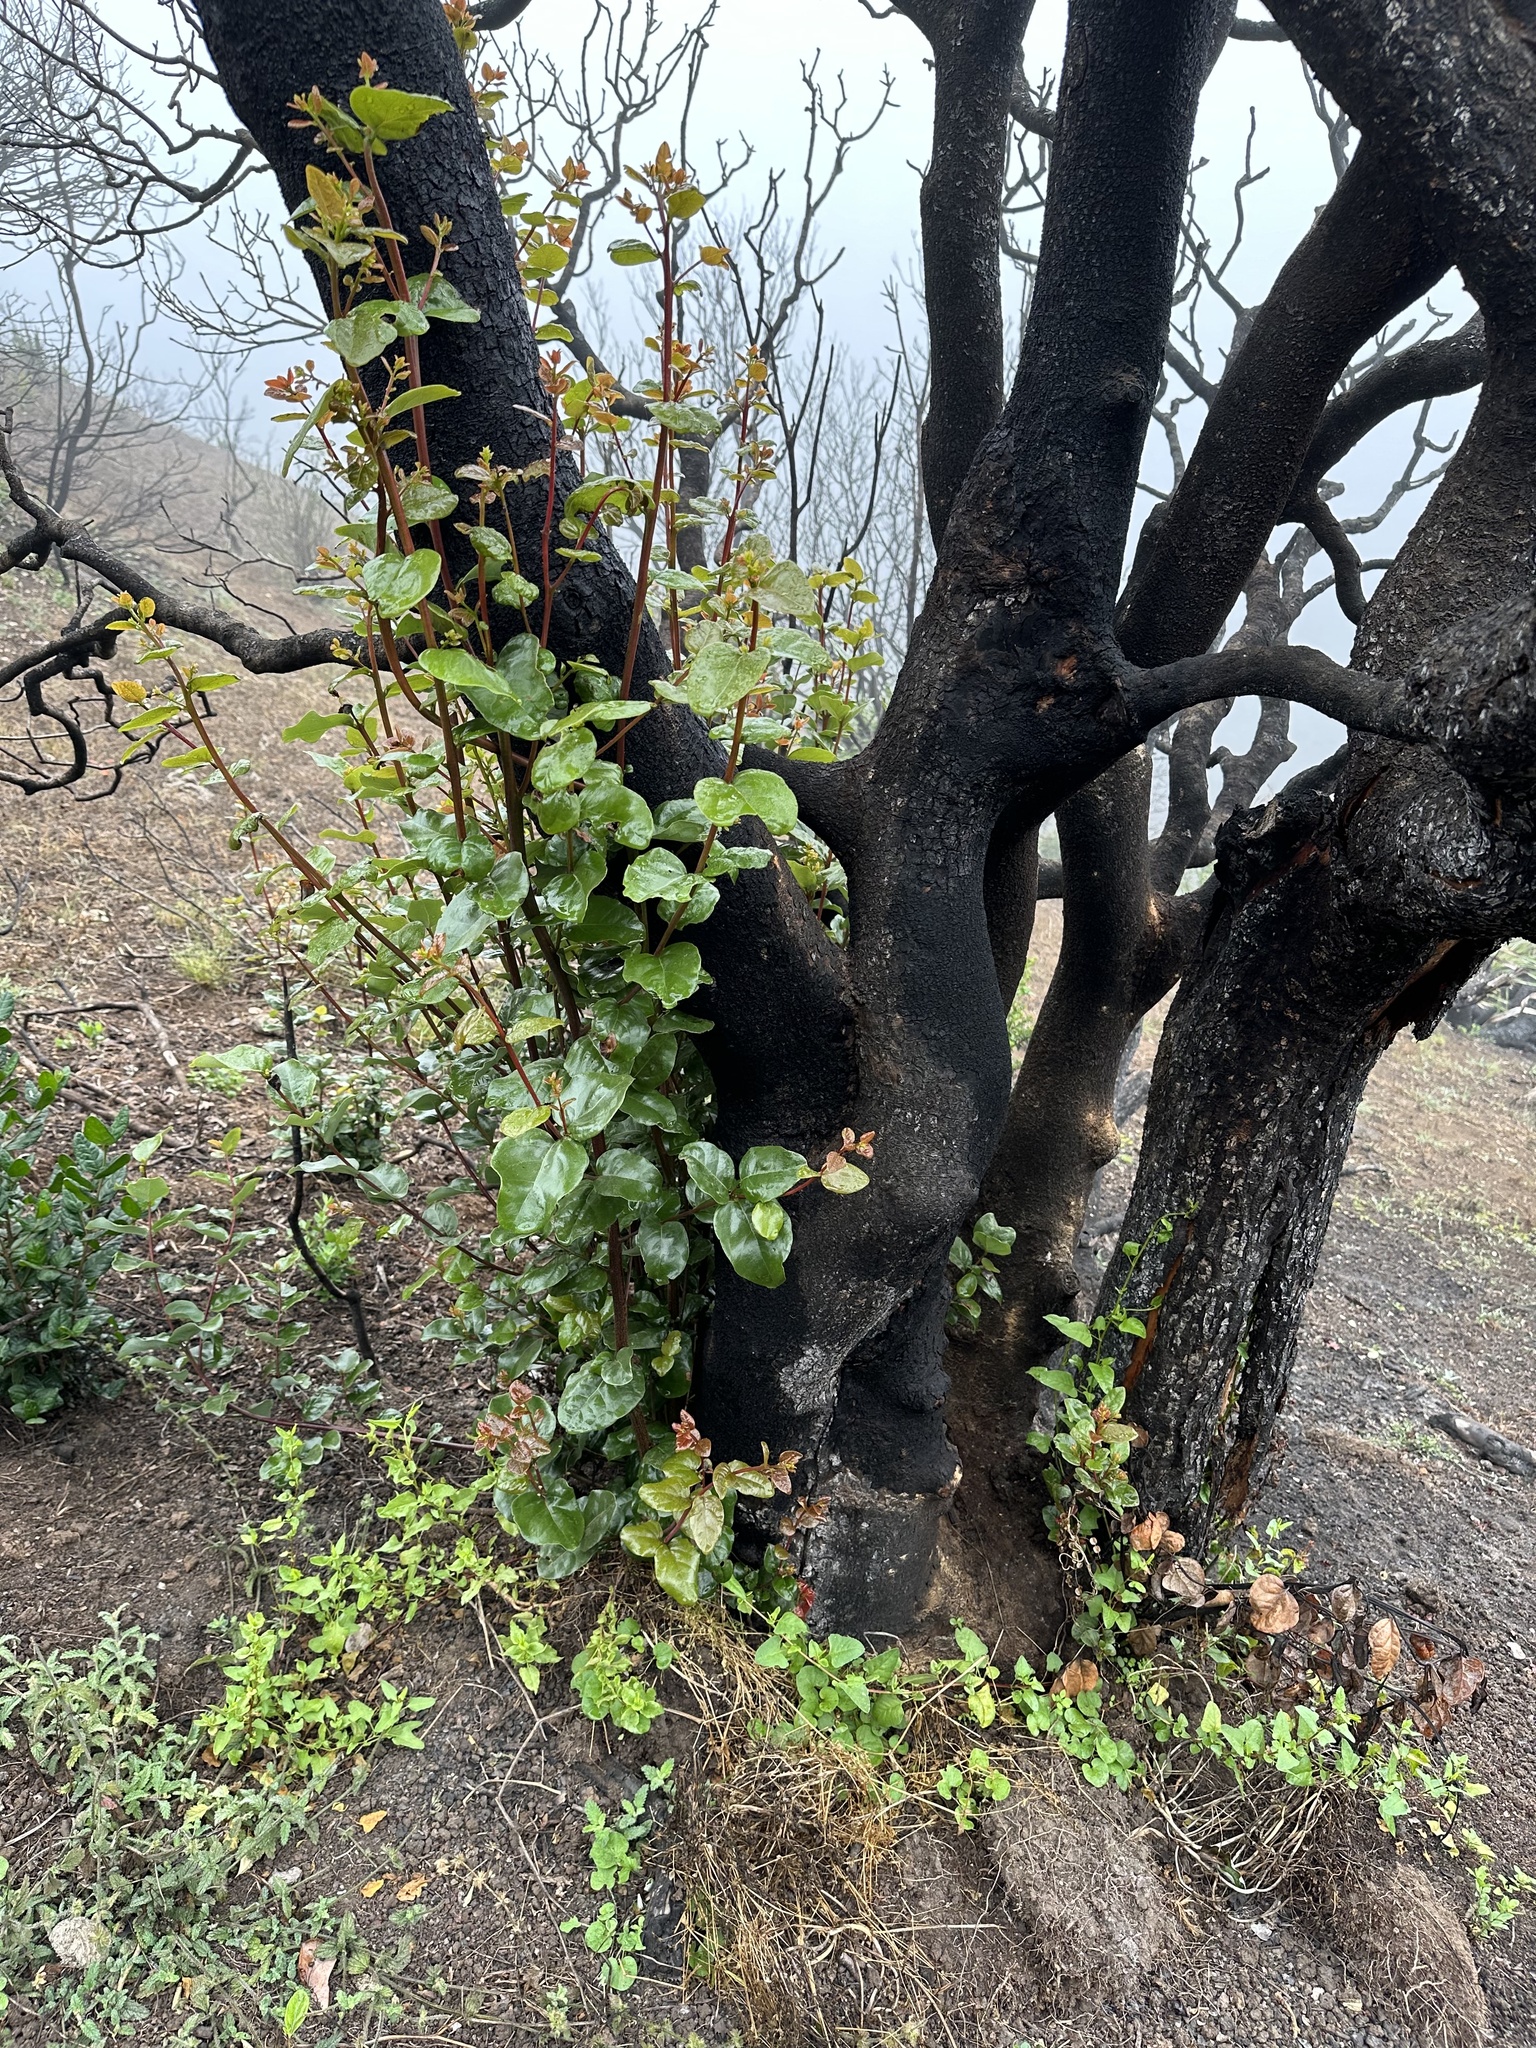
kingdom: Plantae
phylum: Tracheophyta
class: Magnoliopsida
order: Laurales
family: Lauraceae
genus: Beilschmiedia
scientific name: Beilschmiedia miersii
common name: Bellota
